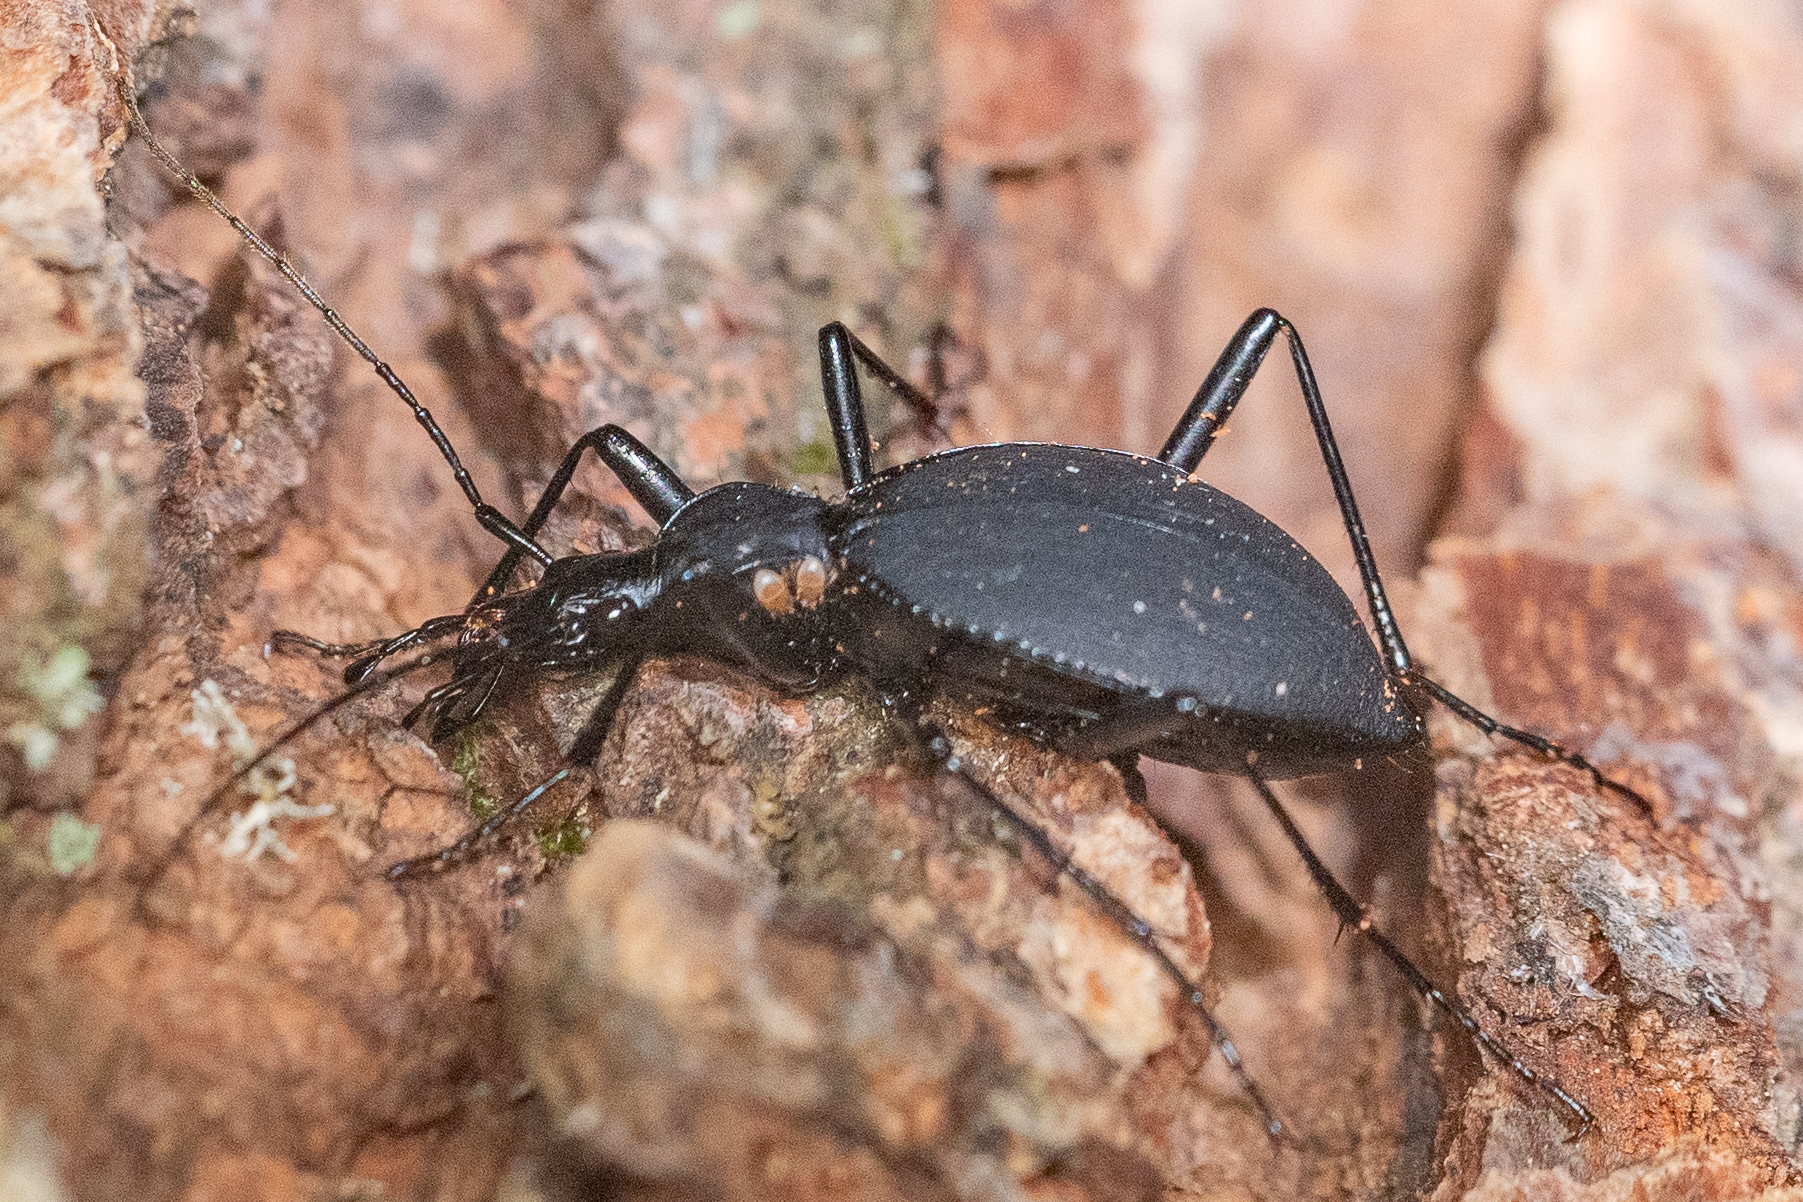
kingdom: Animalia
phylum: Arthropoda
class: Insecta
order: Coleoptera
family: Carabidae
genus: Scaphinotus
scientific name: Scaphinotus angusticollis
